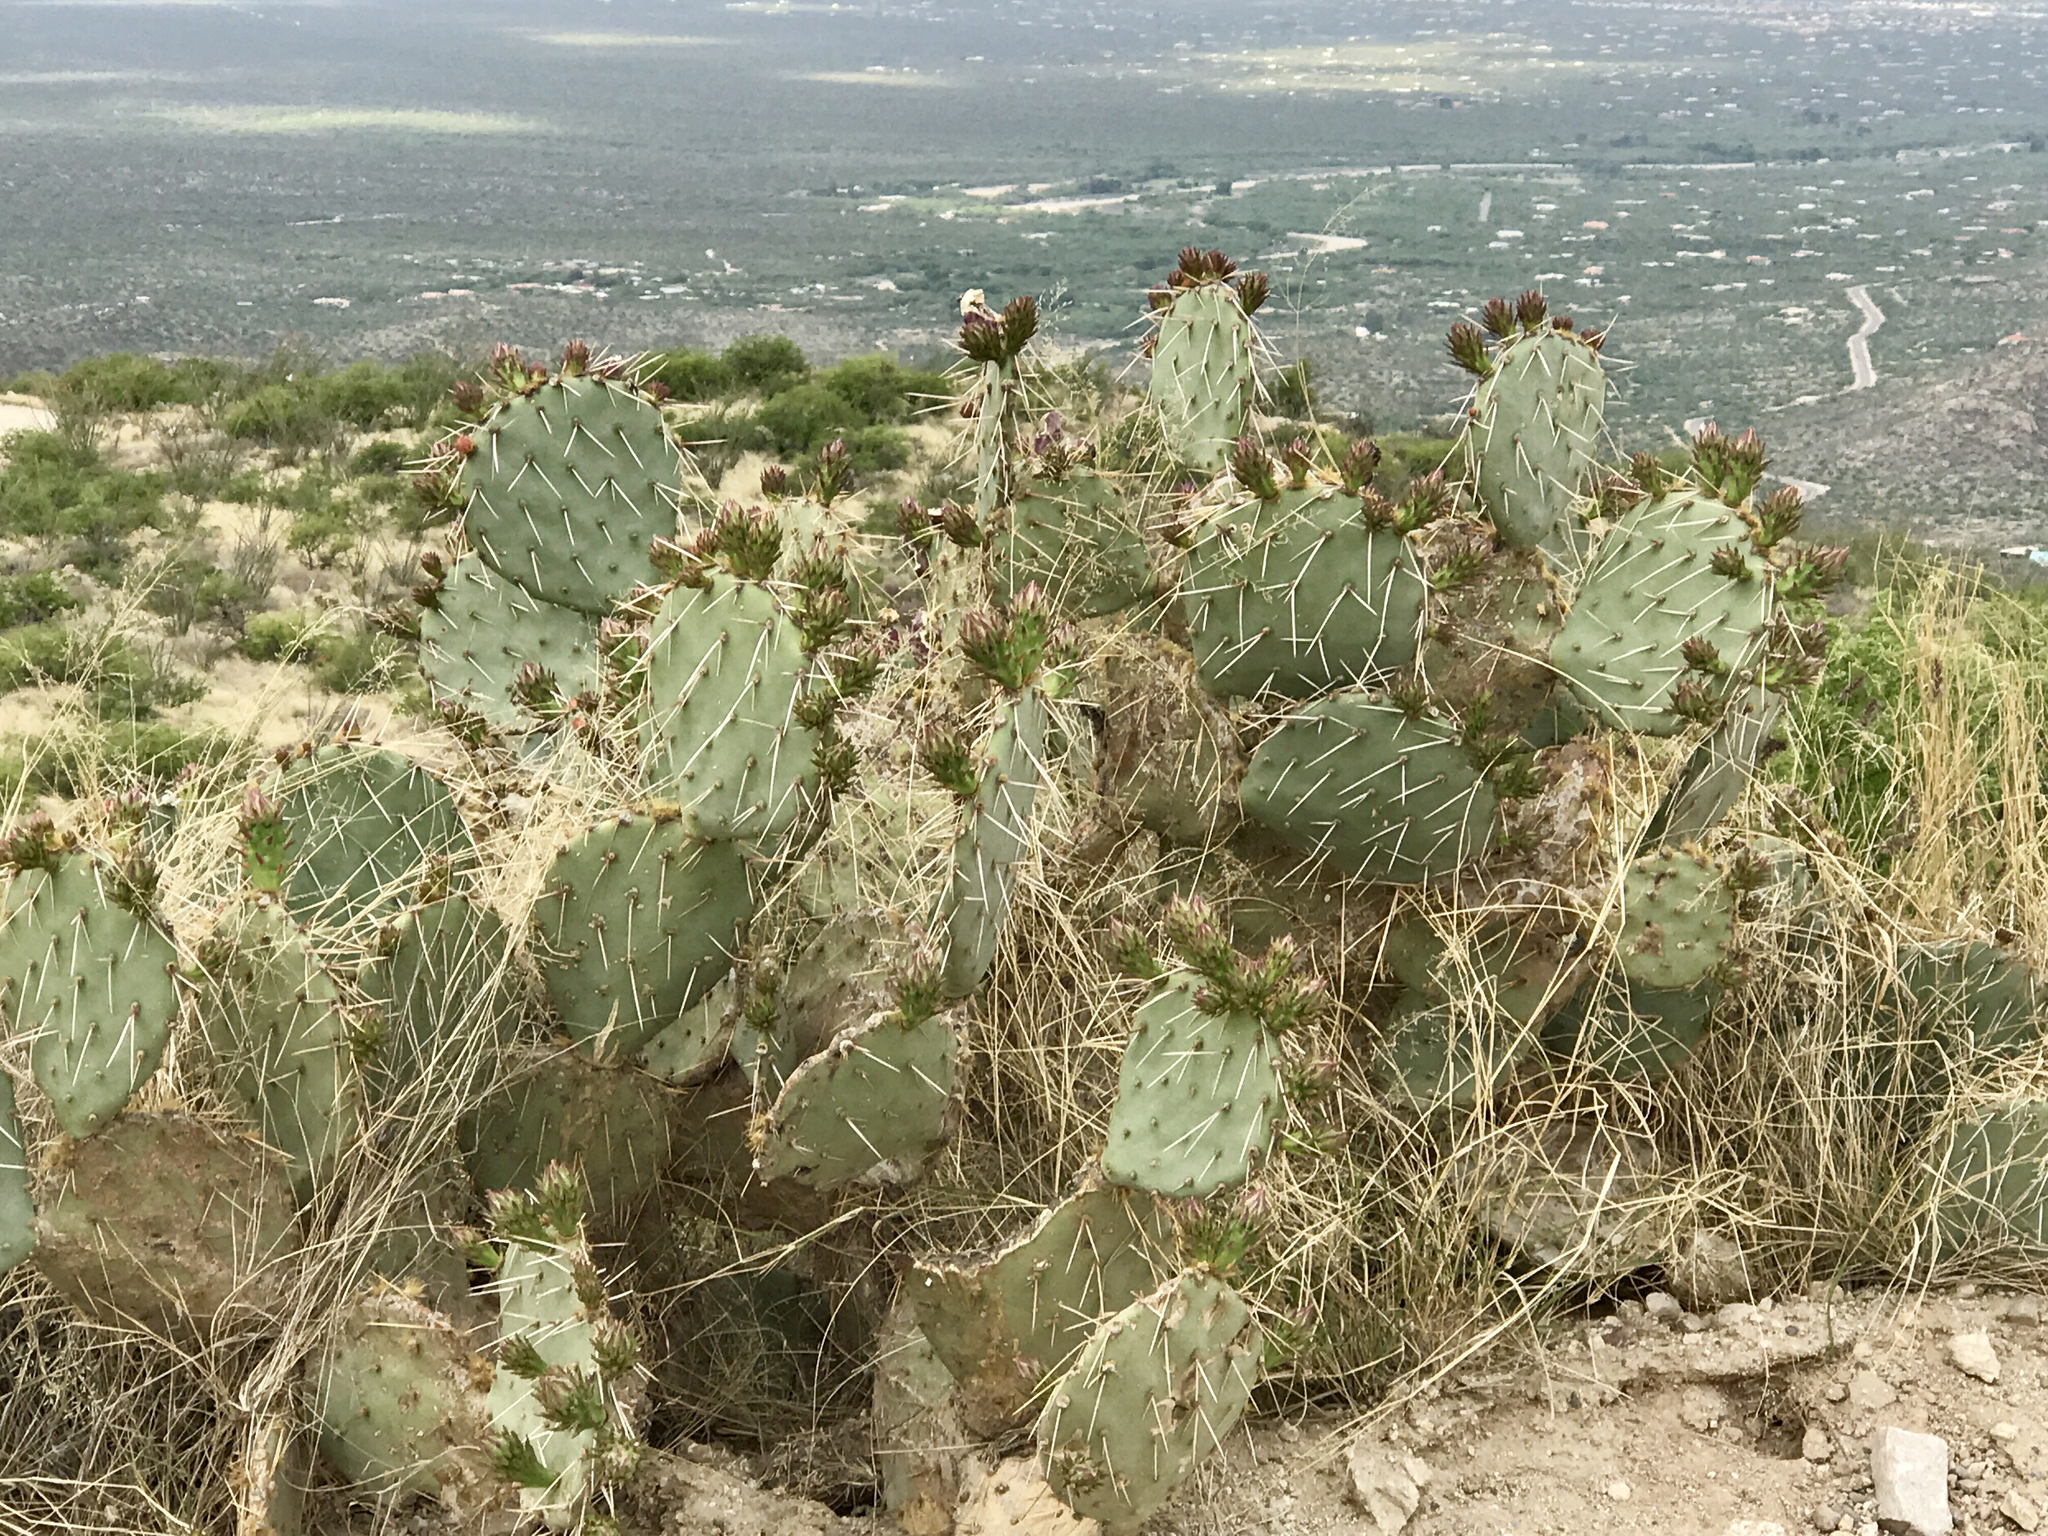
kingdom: Plantae
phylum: Tracheophyta
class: Magnoliopsida
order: Caryophyllales
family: Cactaceae
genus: Opuntia
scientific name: Opuntia engelmannii
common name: Cactus-apple
